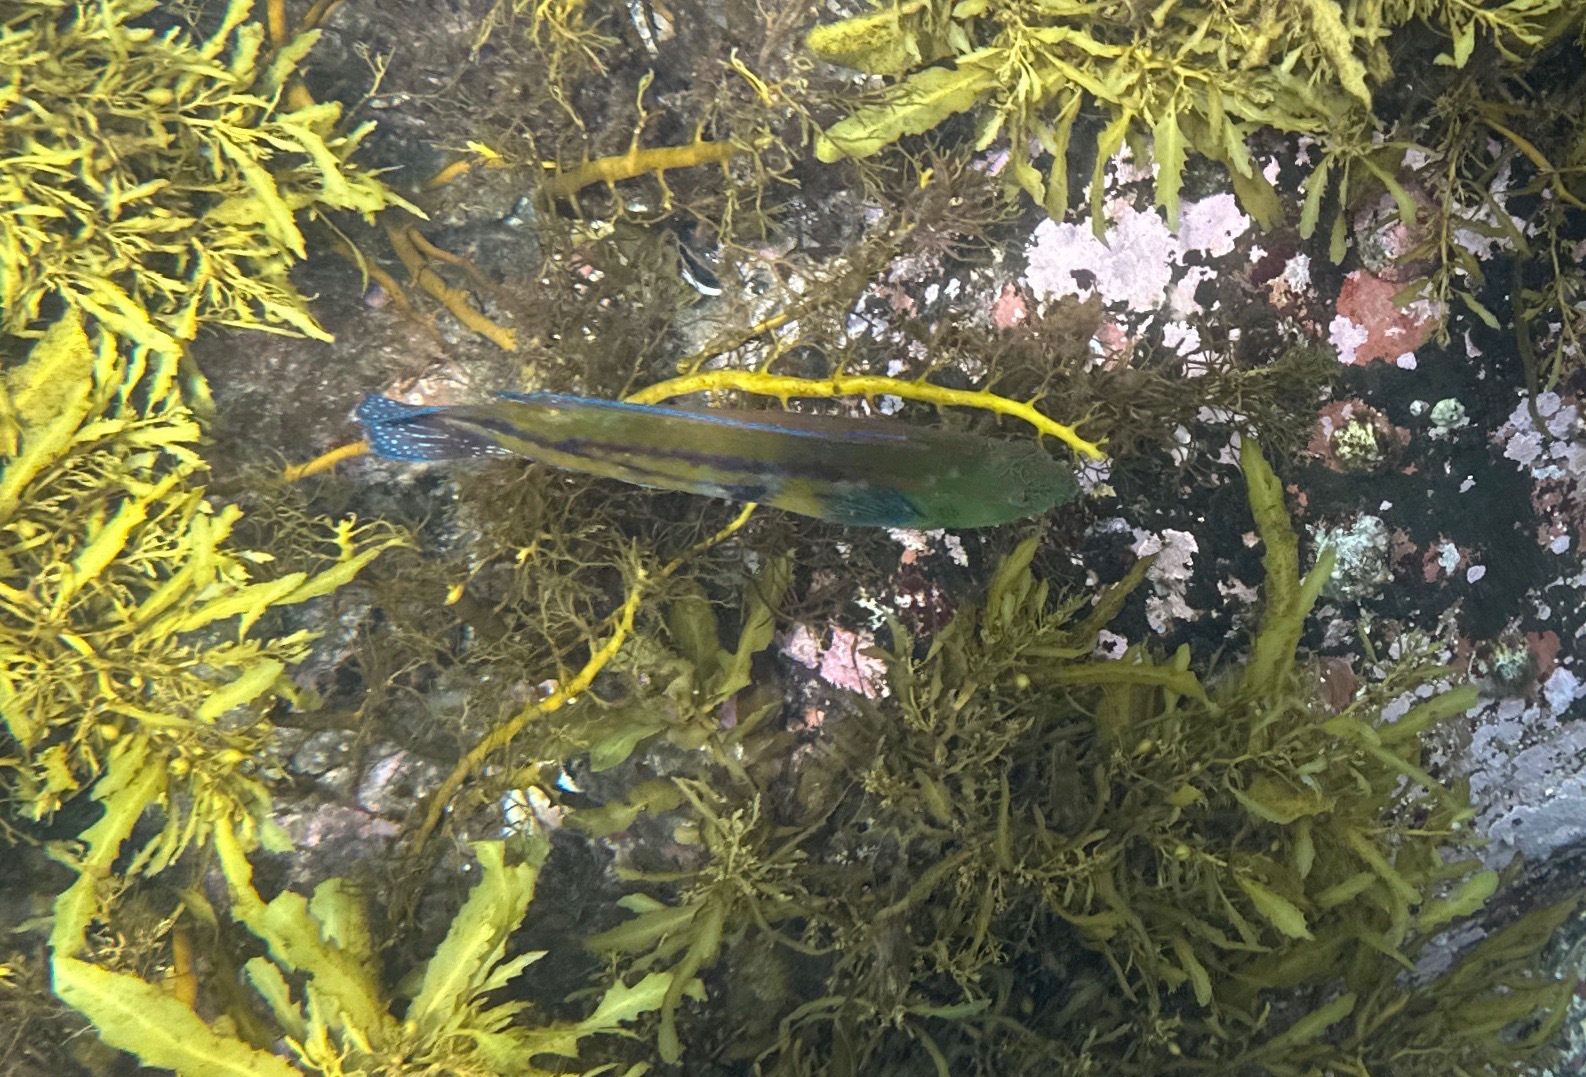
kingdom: Animalia
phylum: Chordata
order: Perciformes
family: Labridae
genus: Pictilabrus
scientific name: Pictilabrus laticlavius
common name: Patrician wrasse
